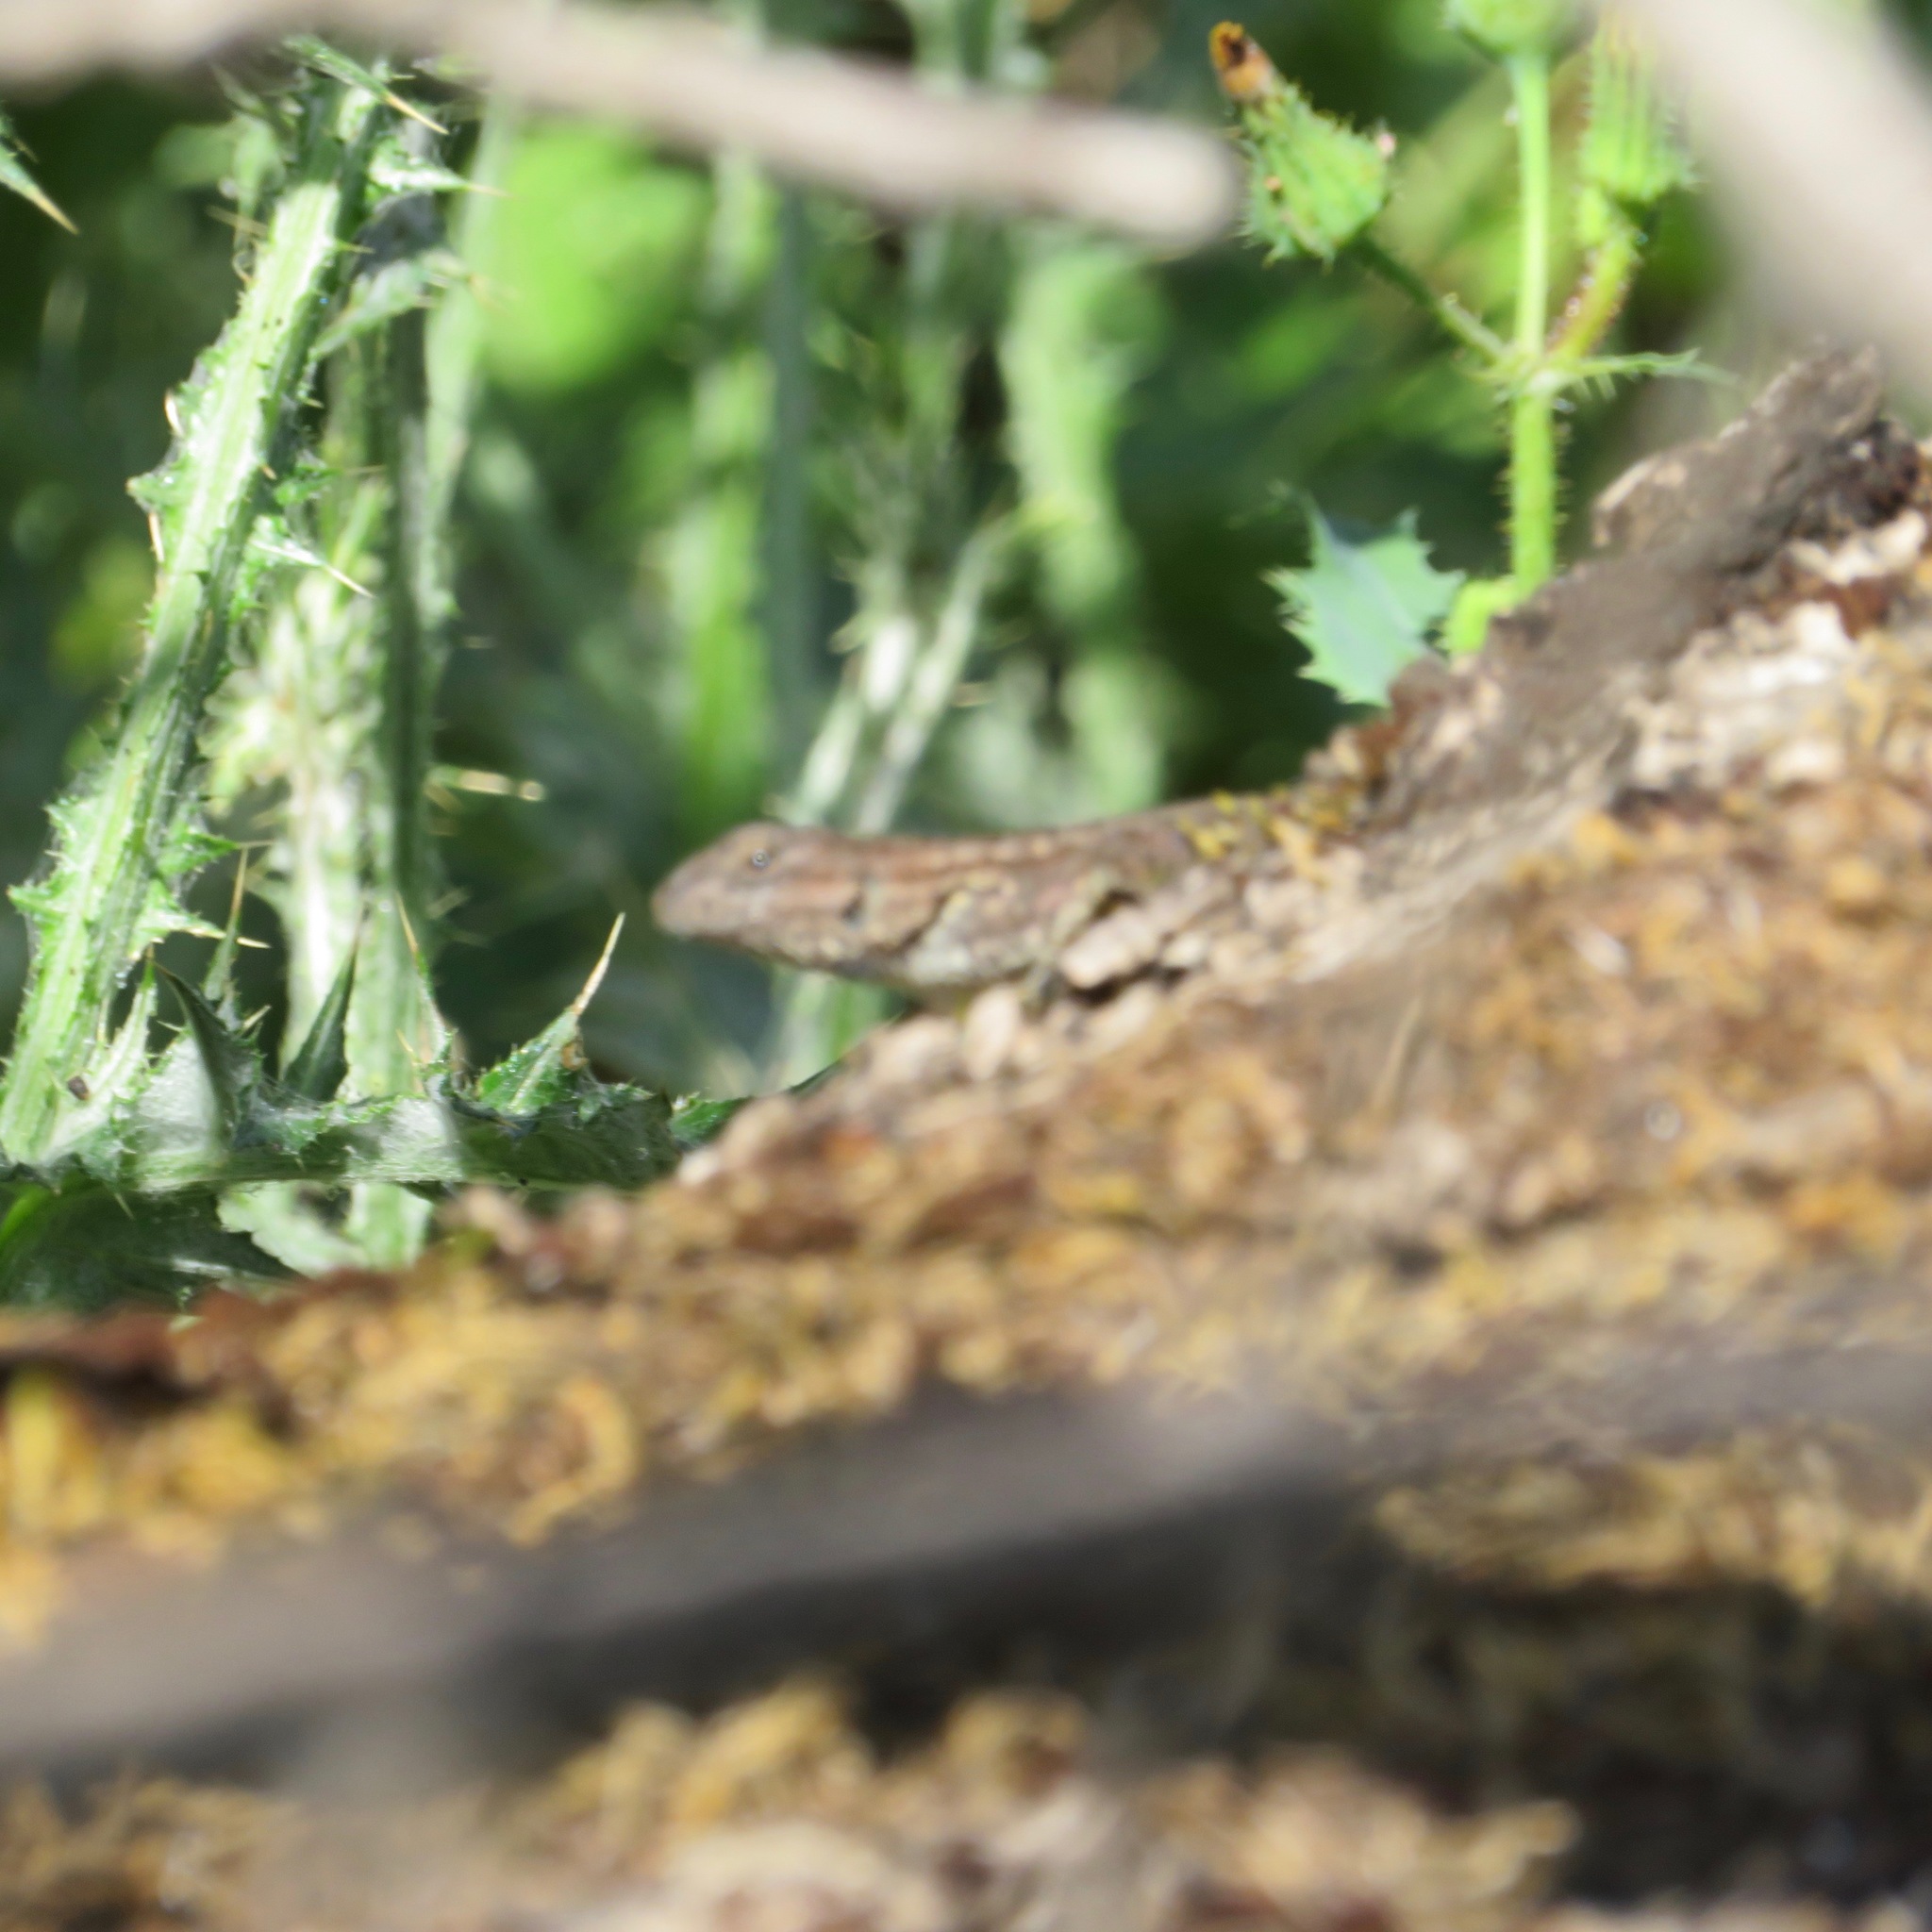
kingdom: Animalia
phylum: Chordata
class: Squamata
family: Phrynosomatidae
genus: Sceloporus
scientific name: Sceloporus occidentalis
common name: Western fence lizard
